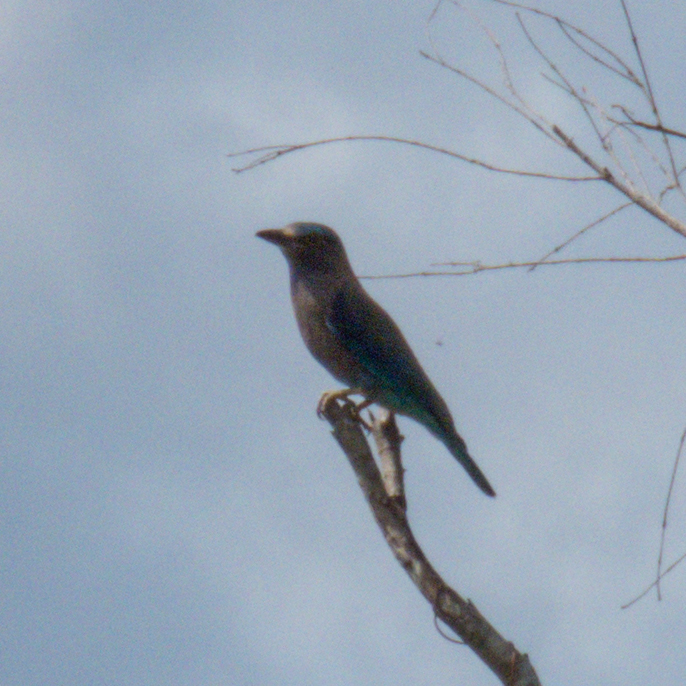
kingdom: Animalia
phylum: Chordata
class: Aves
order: Coraciiformes
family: Coraciidae
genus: Coracias
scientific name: Coracias affinis
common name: Indochinese roller
